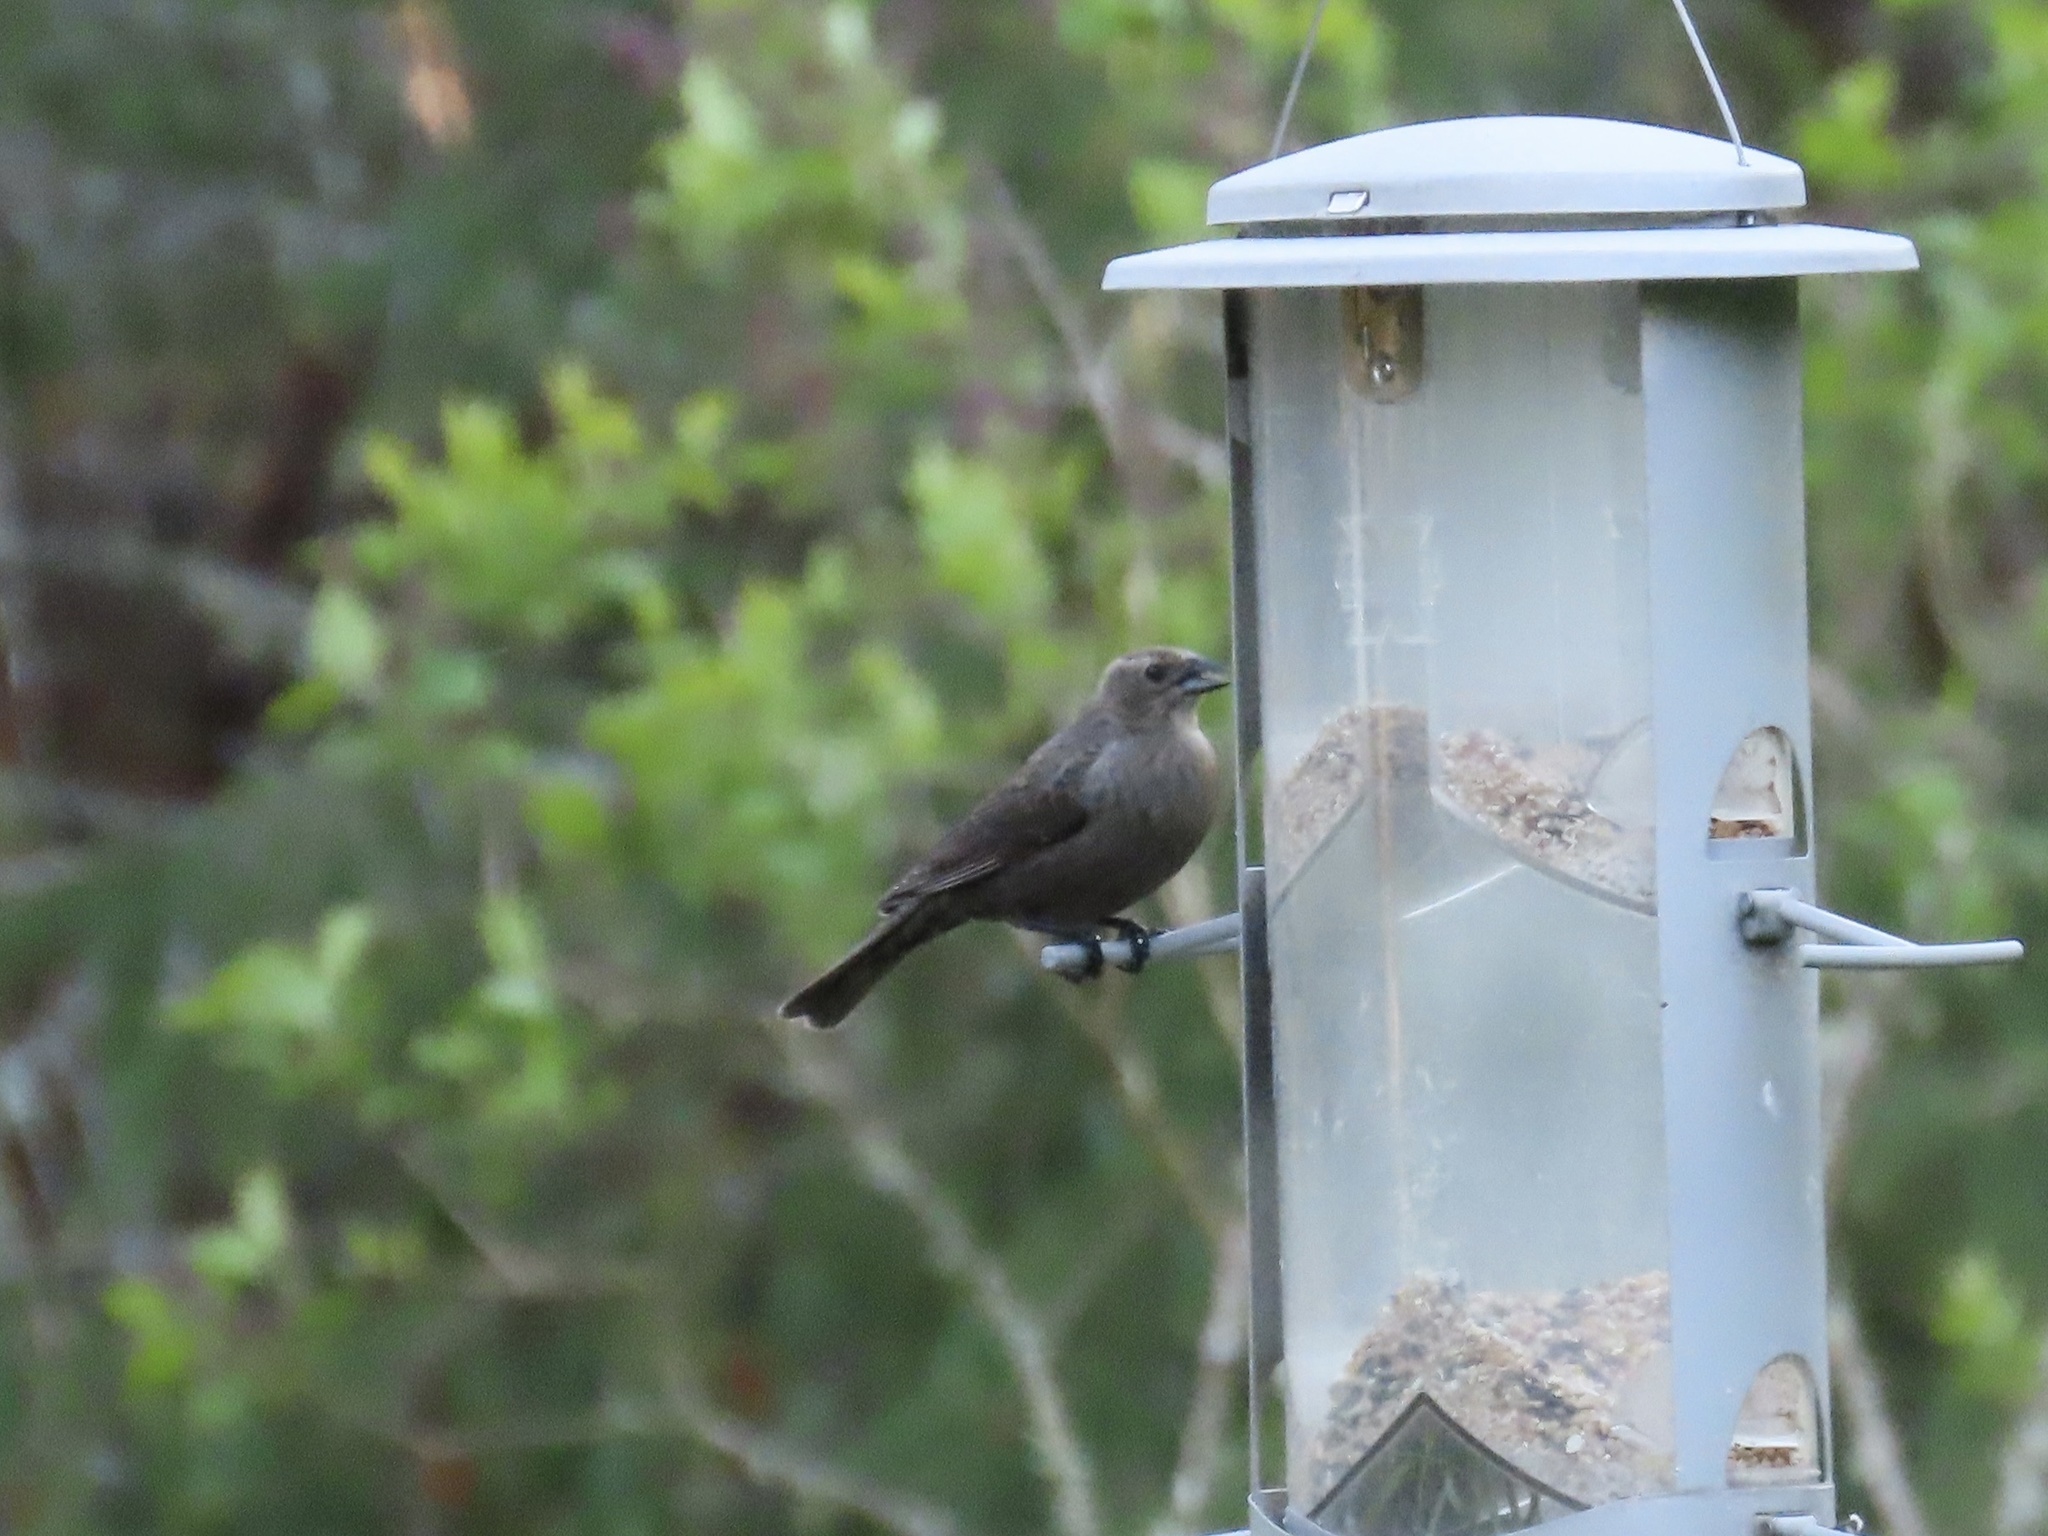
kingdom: Animalia
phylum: Chordata
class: Aves
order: Passeriformes
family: Icteridae
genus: Molothrus
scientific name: Molothrus ater
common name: Brown-headed cowbird
